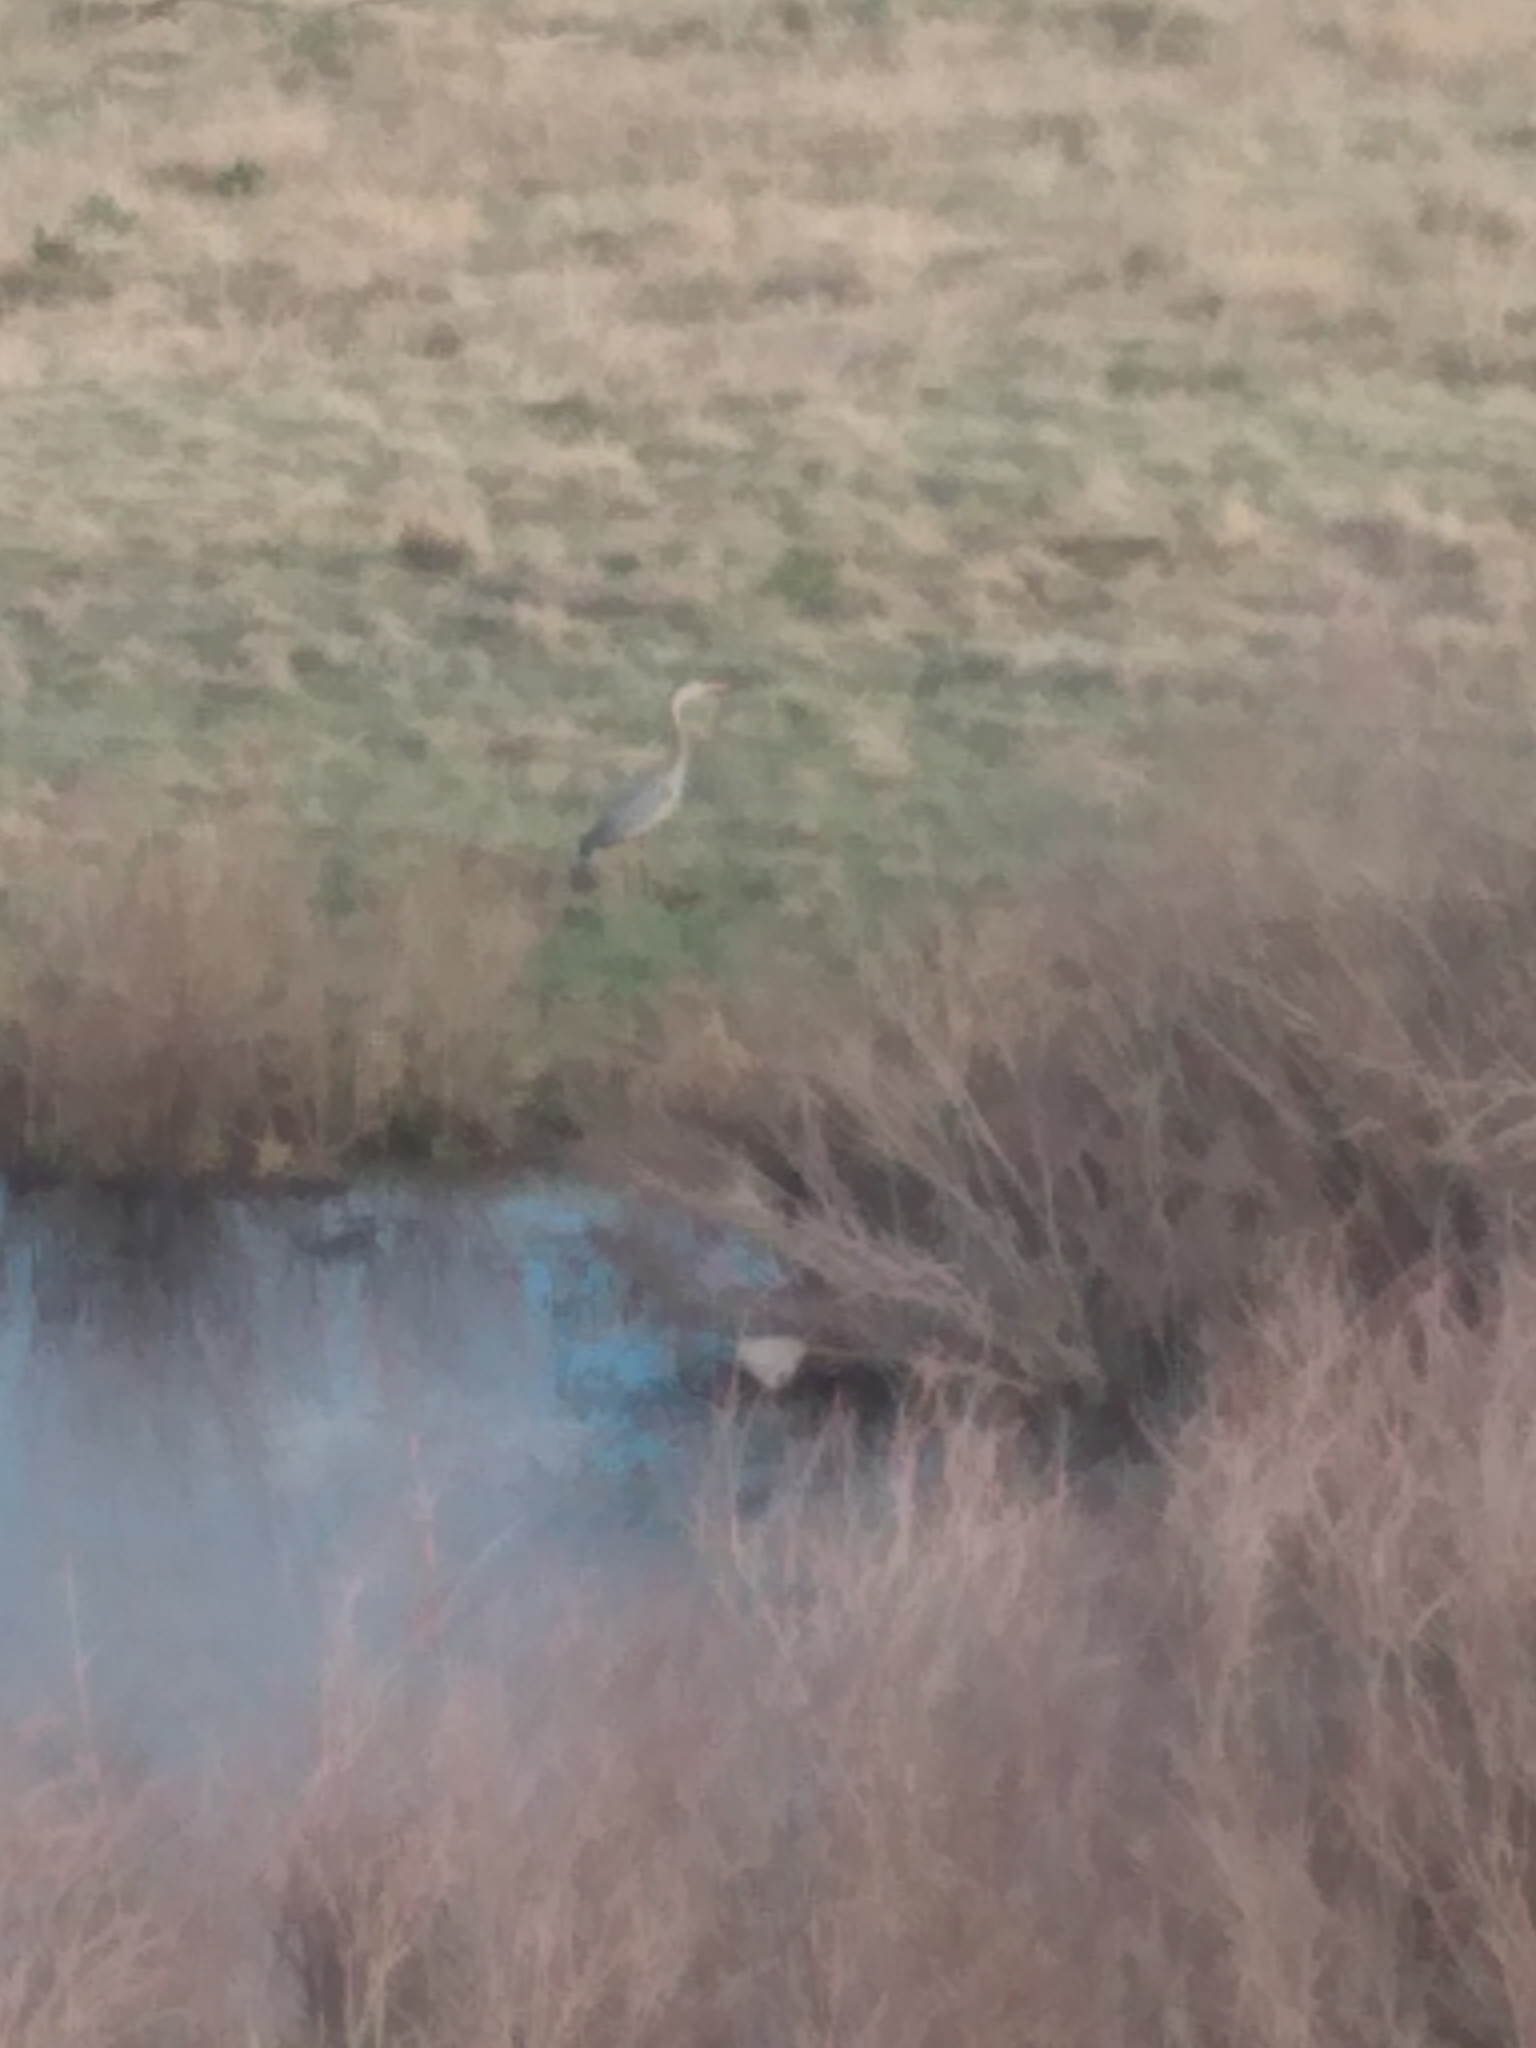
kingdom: Animalia
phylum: Chordata
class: Aves
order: Pelecaniformes
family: Ardeidae
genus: Ardea
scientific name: Ardea herodias
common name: Great blue heron
